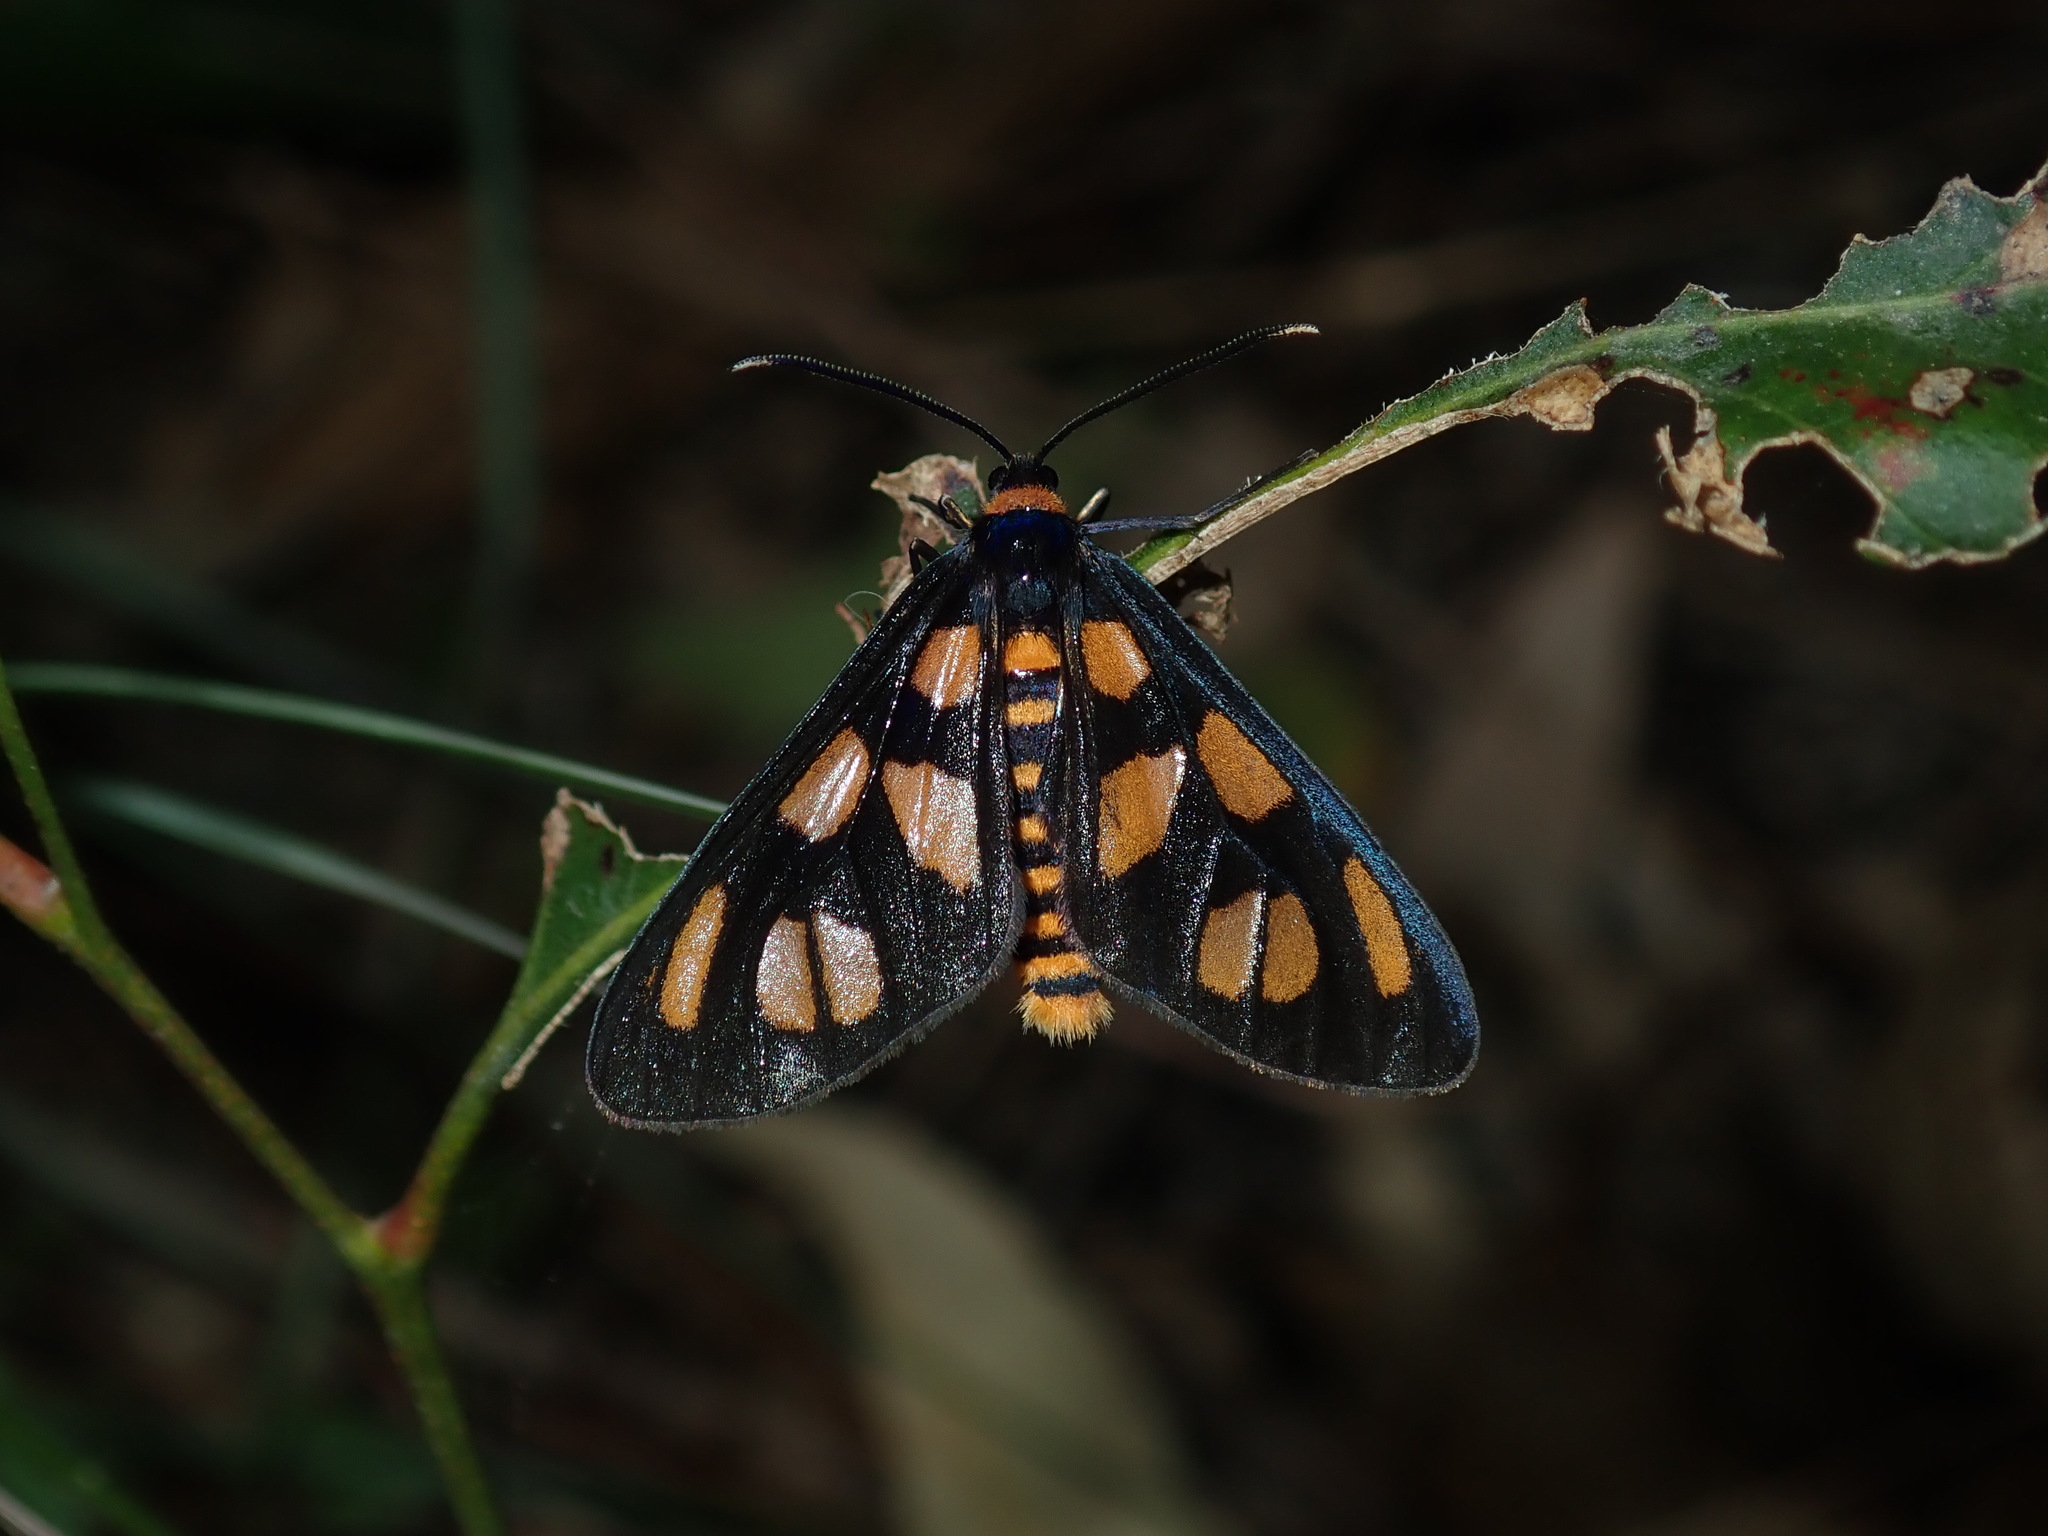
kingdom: Animalia
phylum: Arthropoda
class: Insecta
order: Lepidoptera
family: Erebidae
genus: Amata
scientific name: Amata nigriceps
